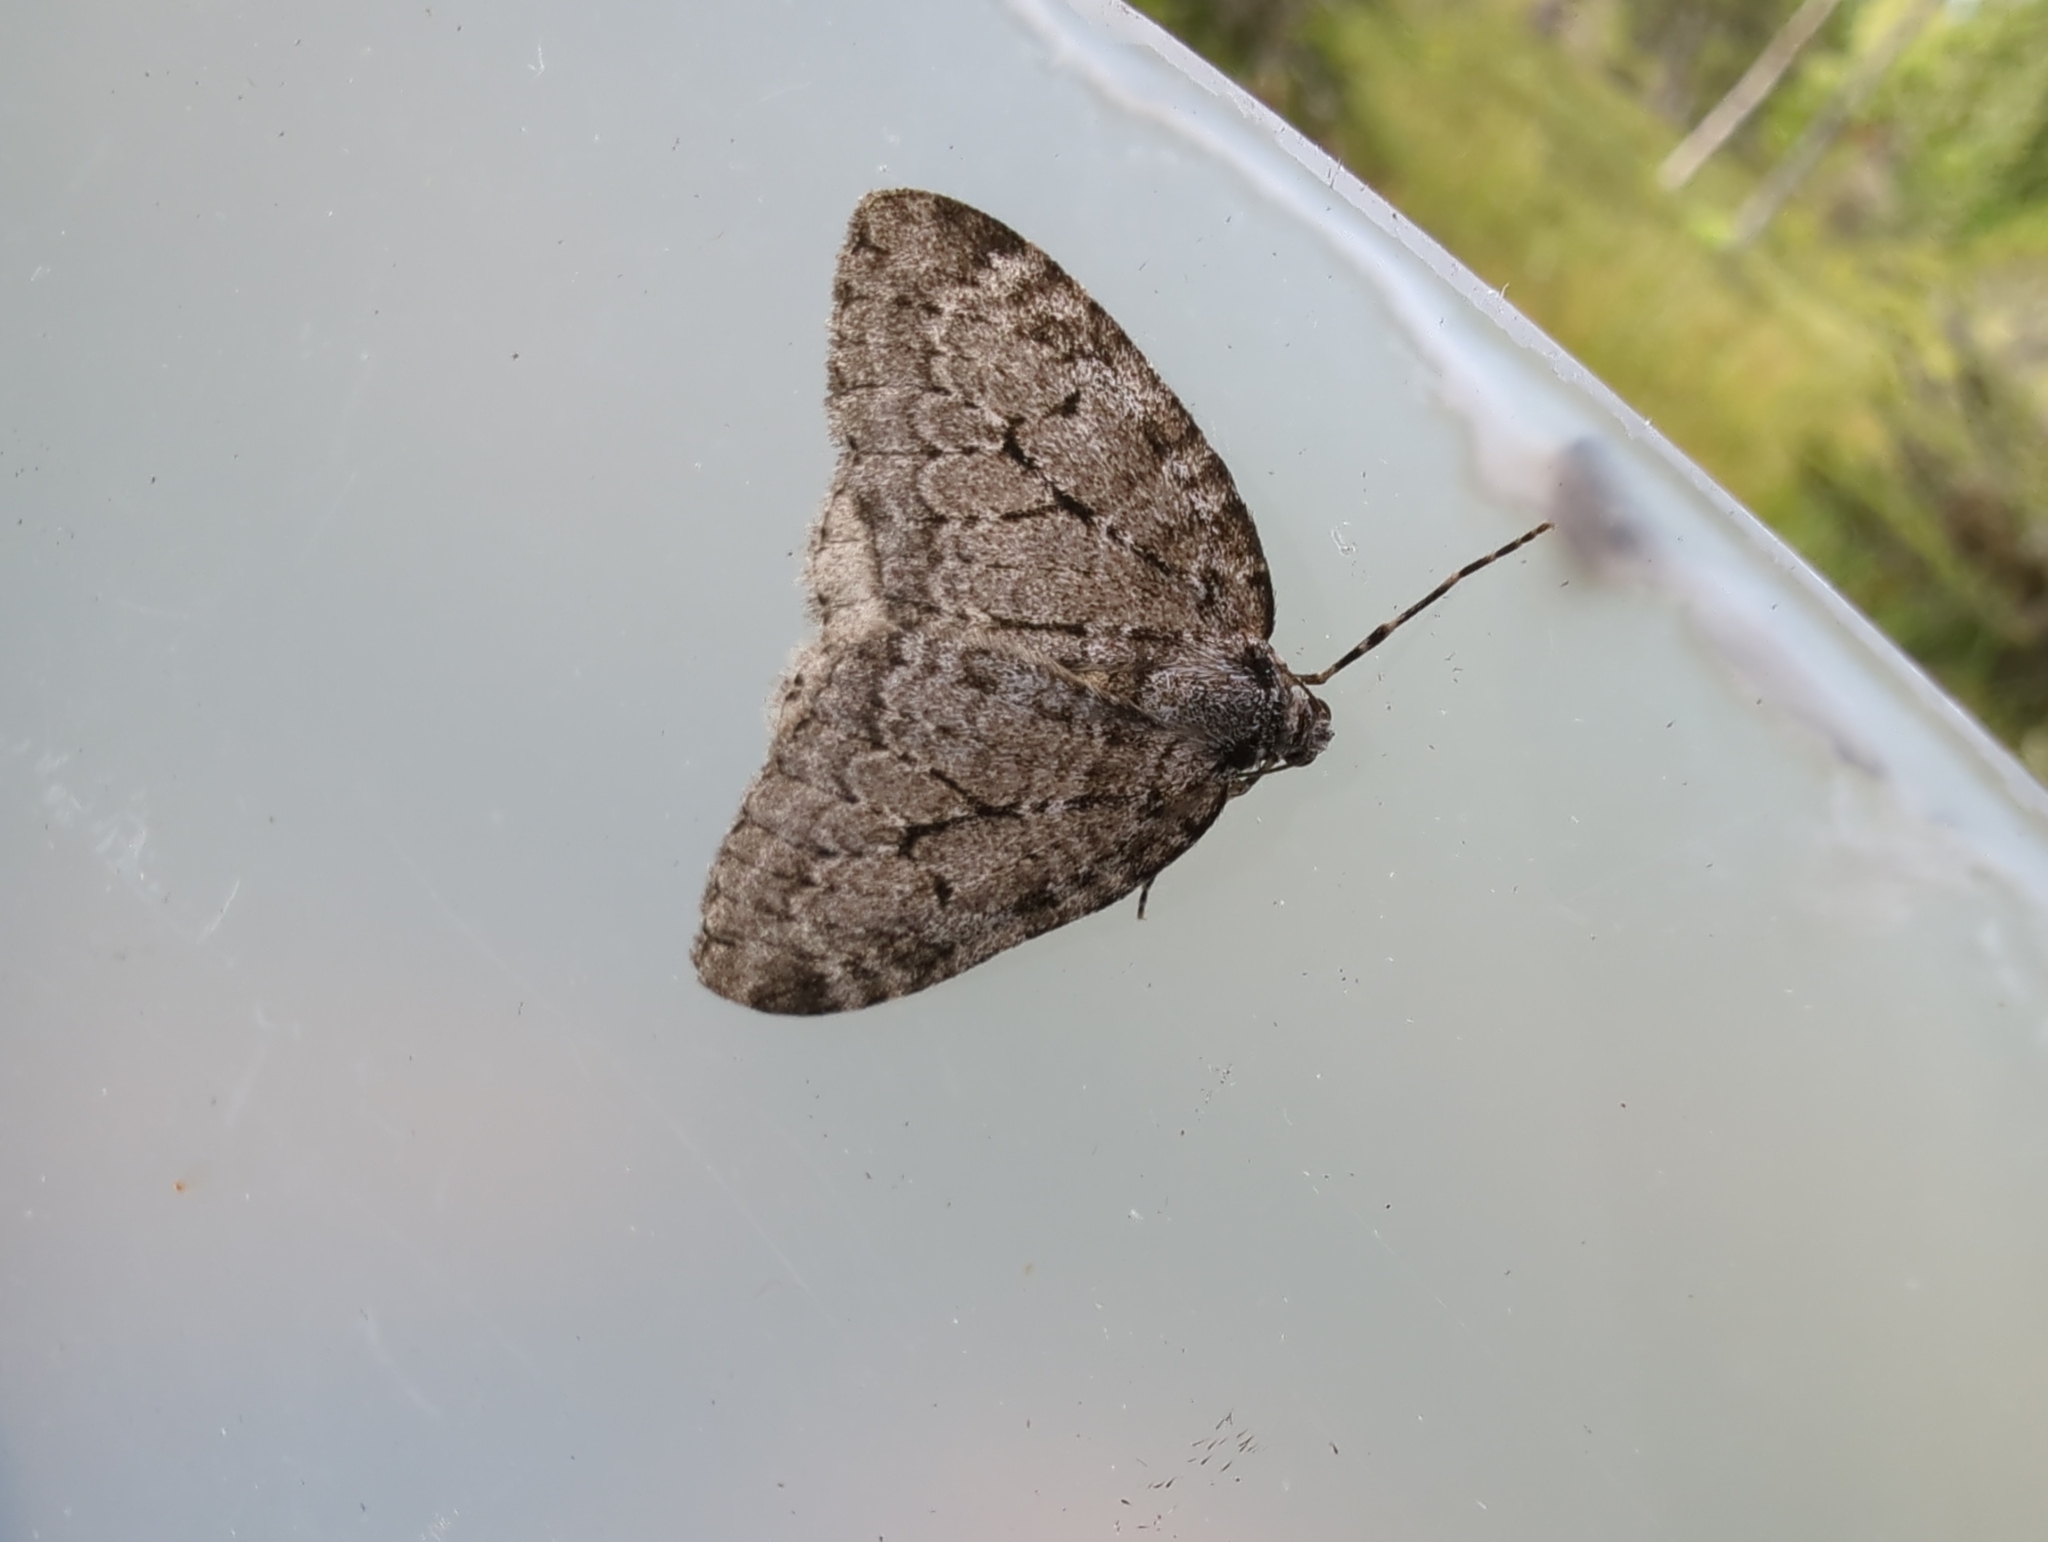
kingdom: Animalia
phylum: Arthropoda
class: Insecta
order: Lepidoptera
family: Geometridae
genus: Epirrita
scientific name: Epirrita autumnata
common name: Autumnal moth
